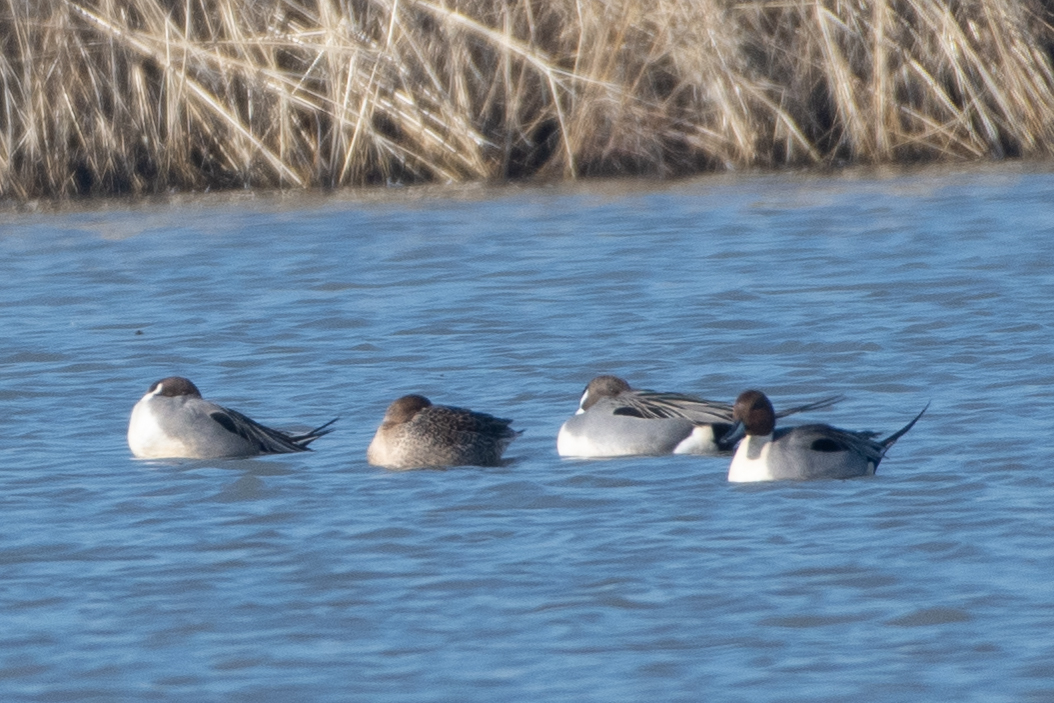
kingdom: Animalia
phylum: Chordata
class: Aves
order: Anseriformes
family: Anatidae
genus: Anas
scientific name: Anas acuta
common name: Northern pintail
